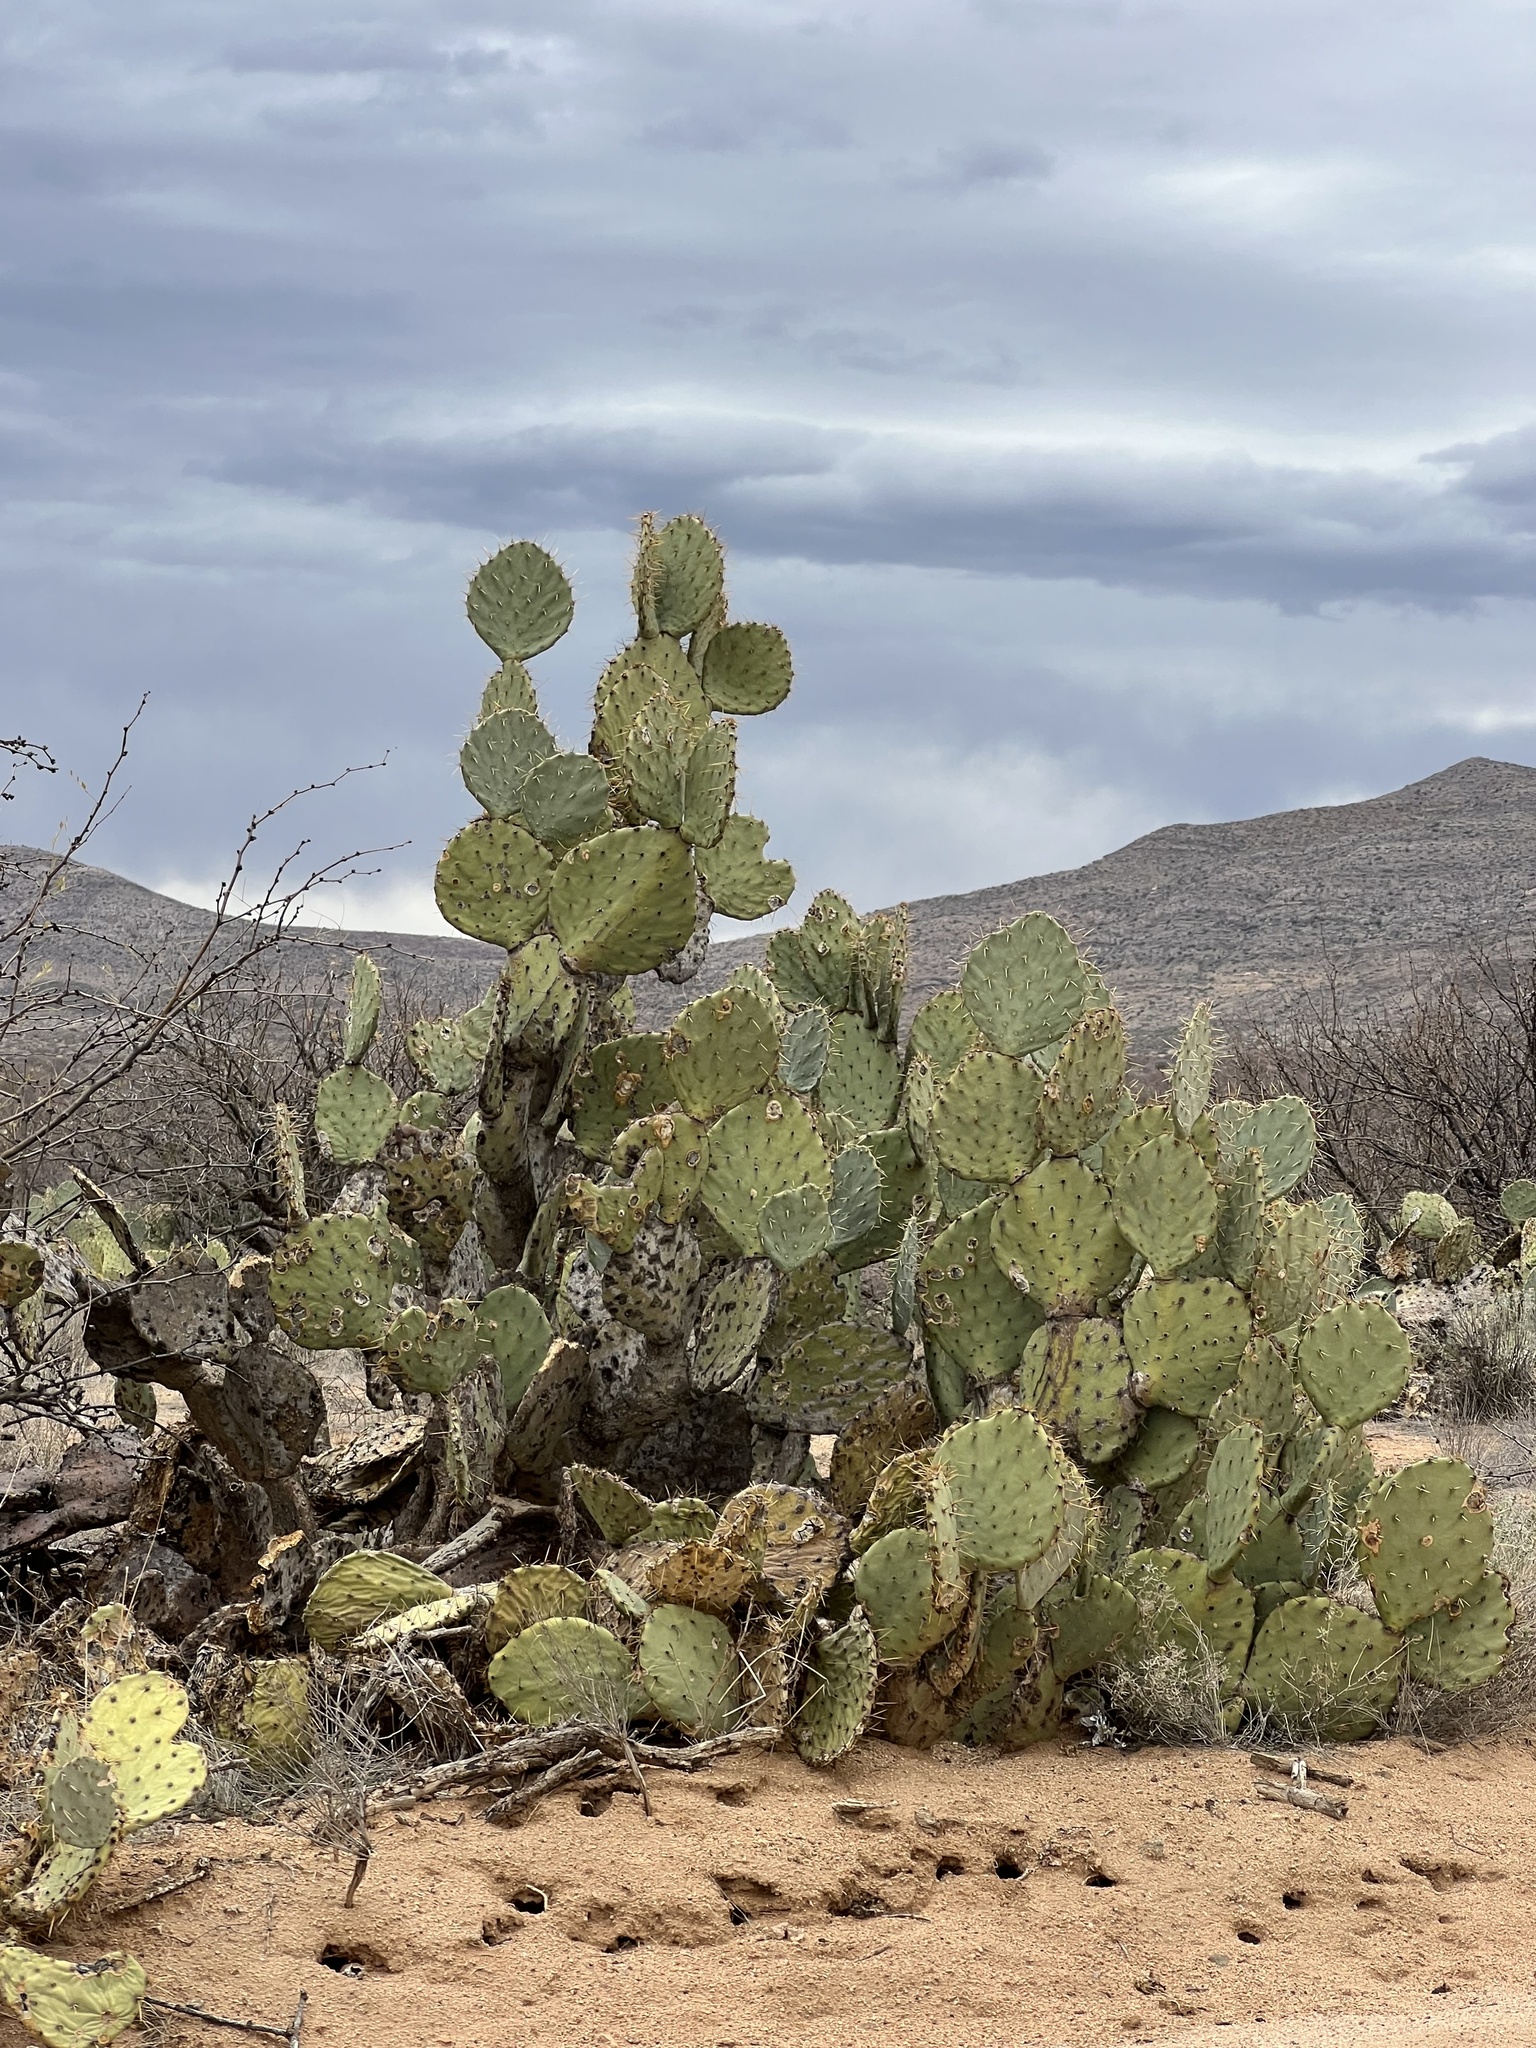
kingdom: Plantae
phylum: Tracheophyta
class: Magnoliopsida
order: Caryophyllales
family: Cactaceae
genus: Opuntia
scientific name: Opuntia engelmannii
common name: Cactus-apple
